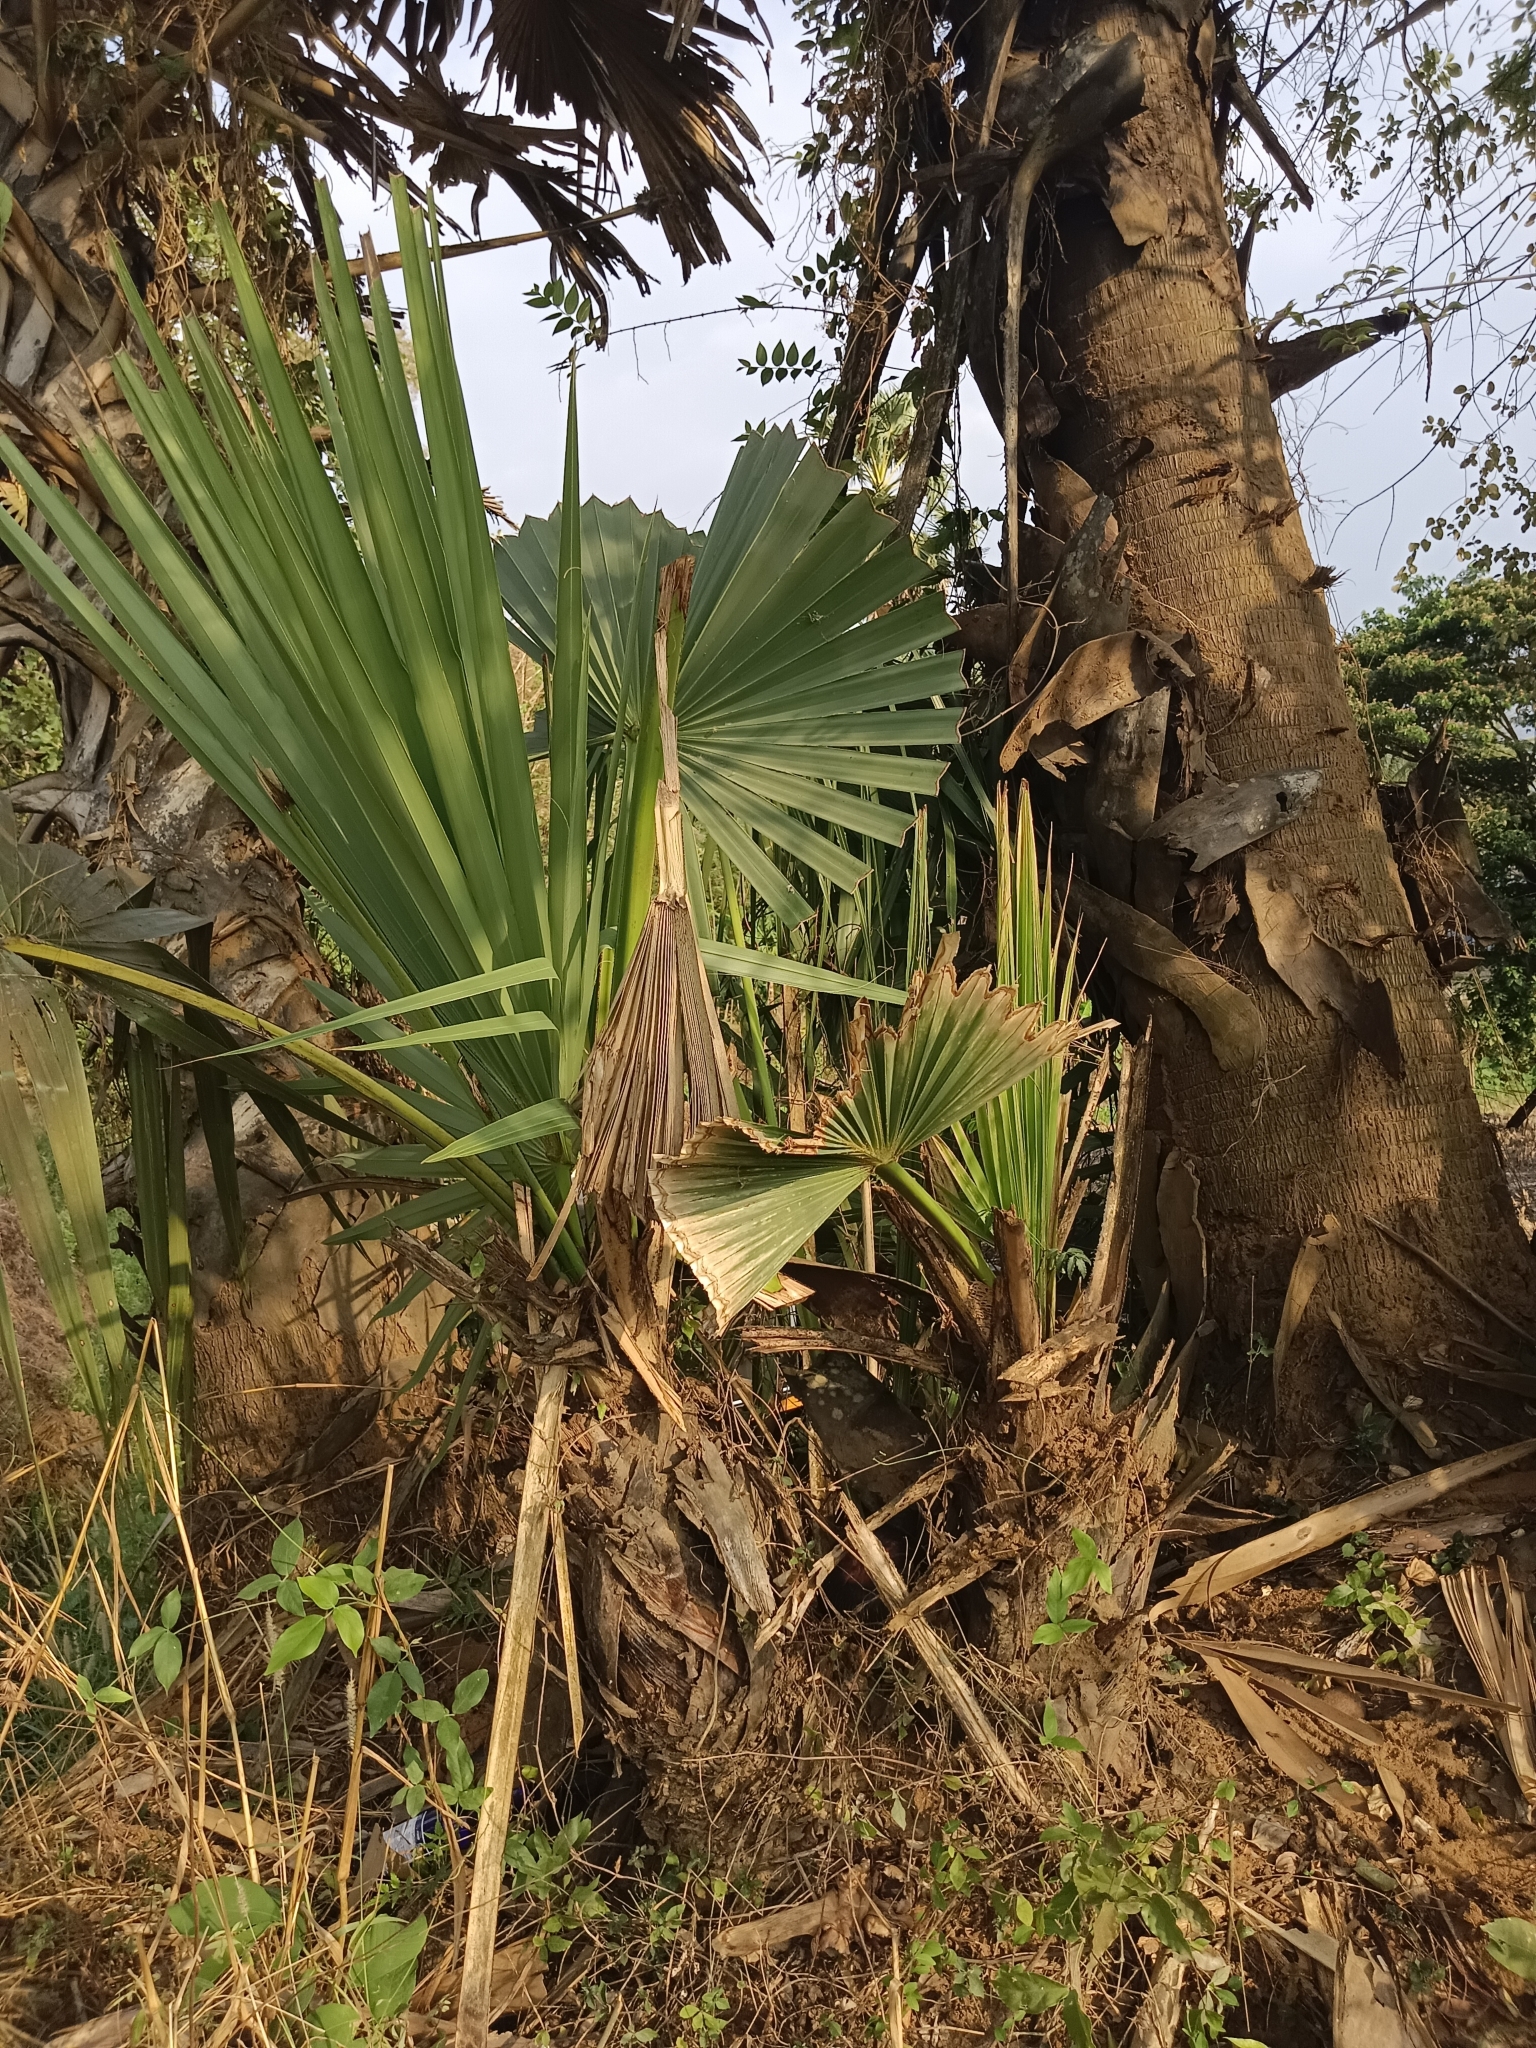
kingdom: Plantae
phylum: Tracheophyta
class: Liliopsida
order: Arecales
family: Arecaceae
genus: Borassus
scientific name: Borassus flabellifer
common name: Palmyra palm
